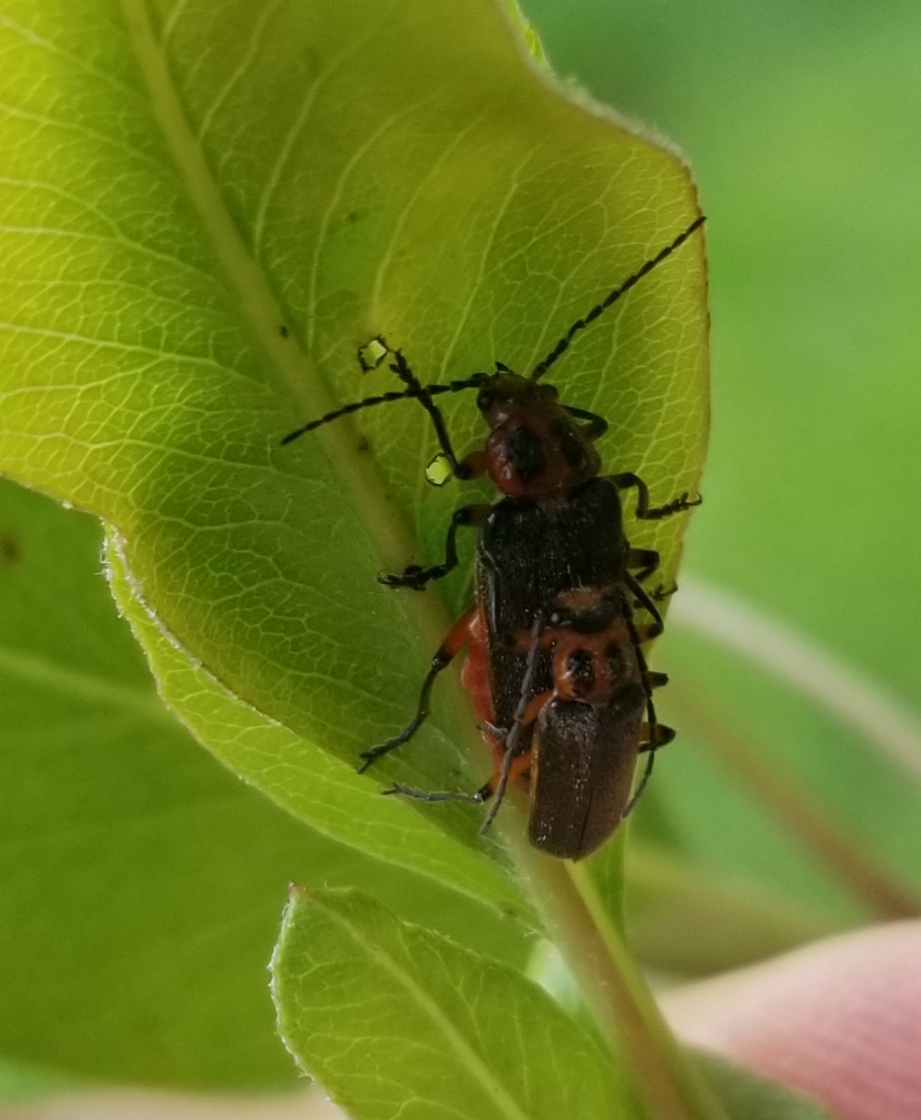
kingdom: Animalia
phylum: Arthropoda
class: Insecta
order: Coleoptera
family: Cantharidae
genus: Atalantycha
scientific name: Atalantycha bilineata
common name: Two-lined leatherwing
